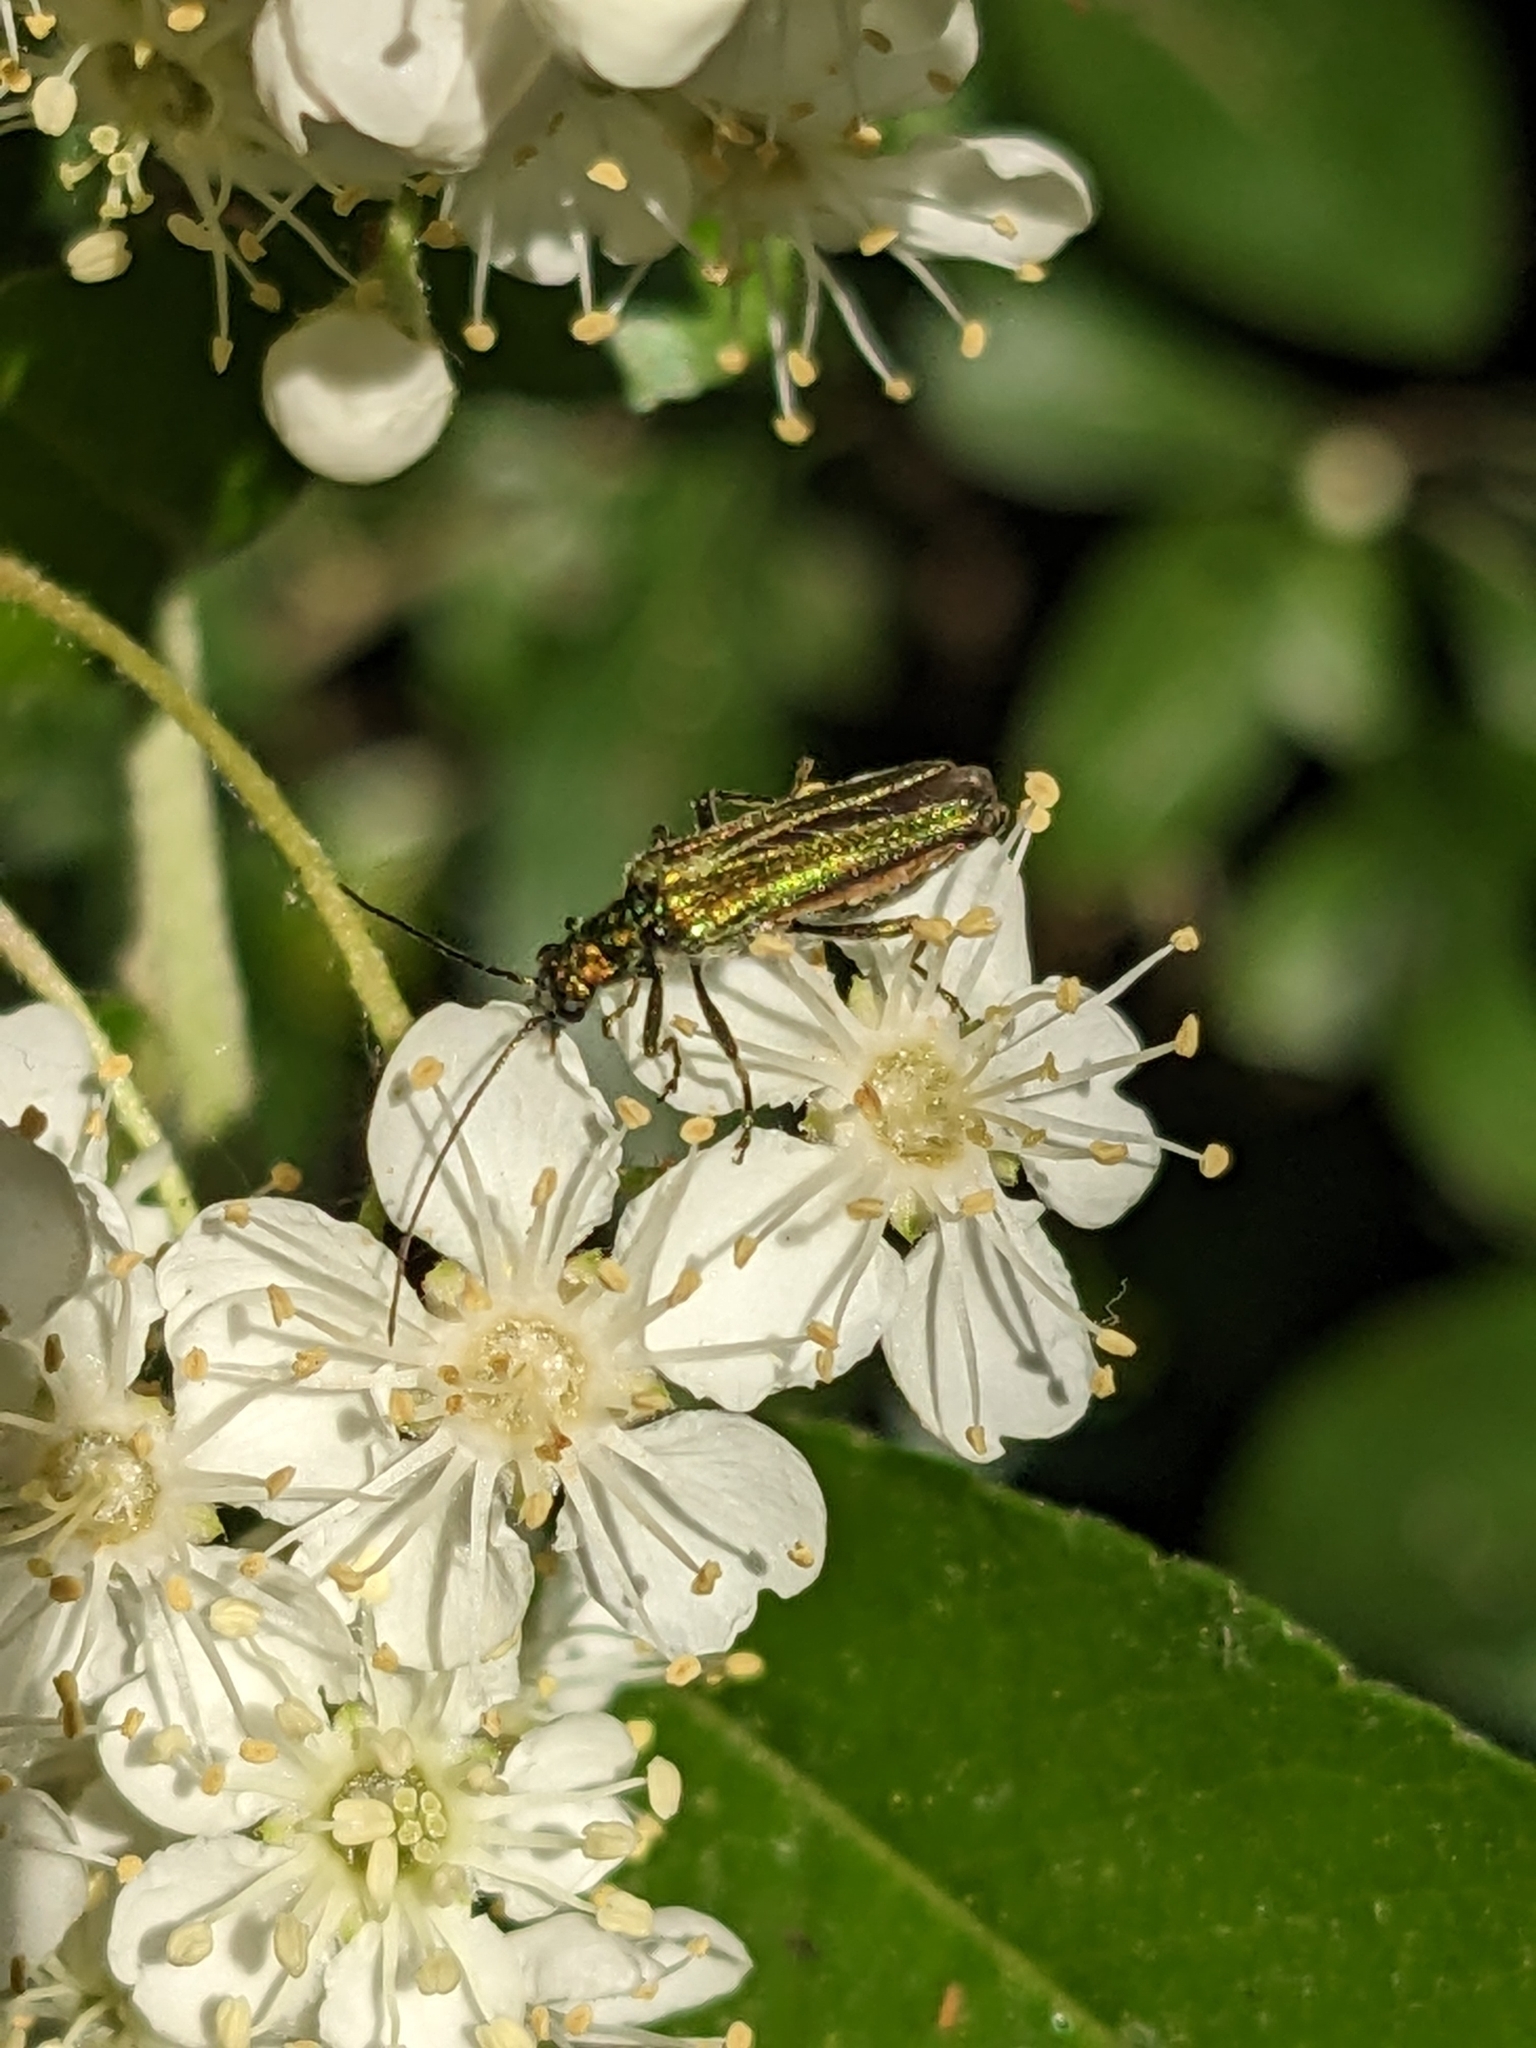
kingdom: Animalia
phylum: Arthropoda
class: Insecta
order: Coleoptera
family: Oedemeridae
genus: Oedemera
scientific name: Oedemera nobilis
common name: Swollen-thighed beetle
